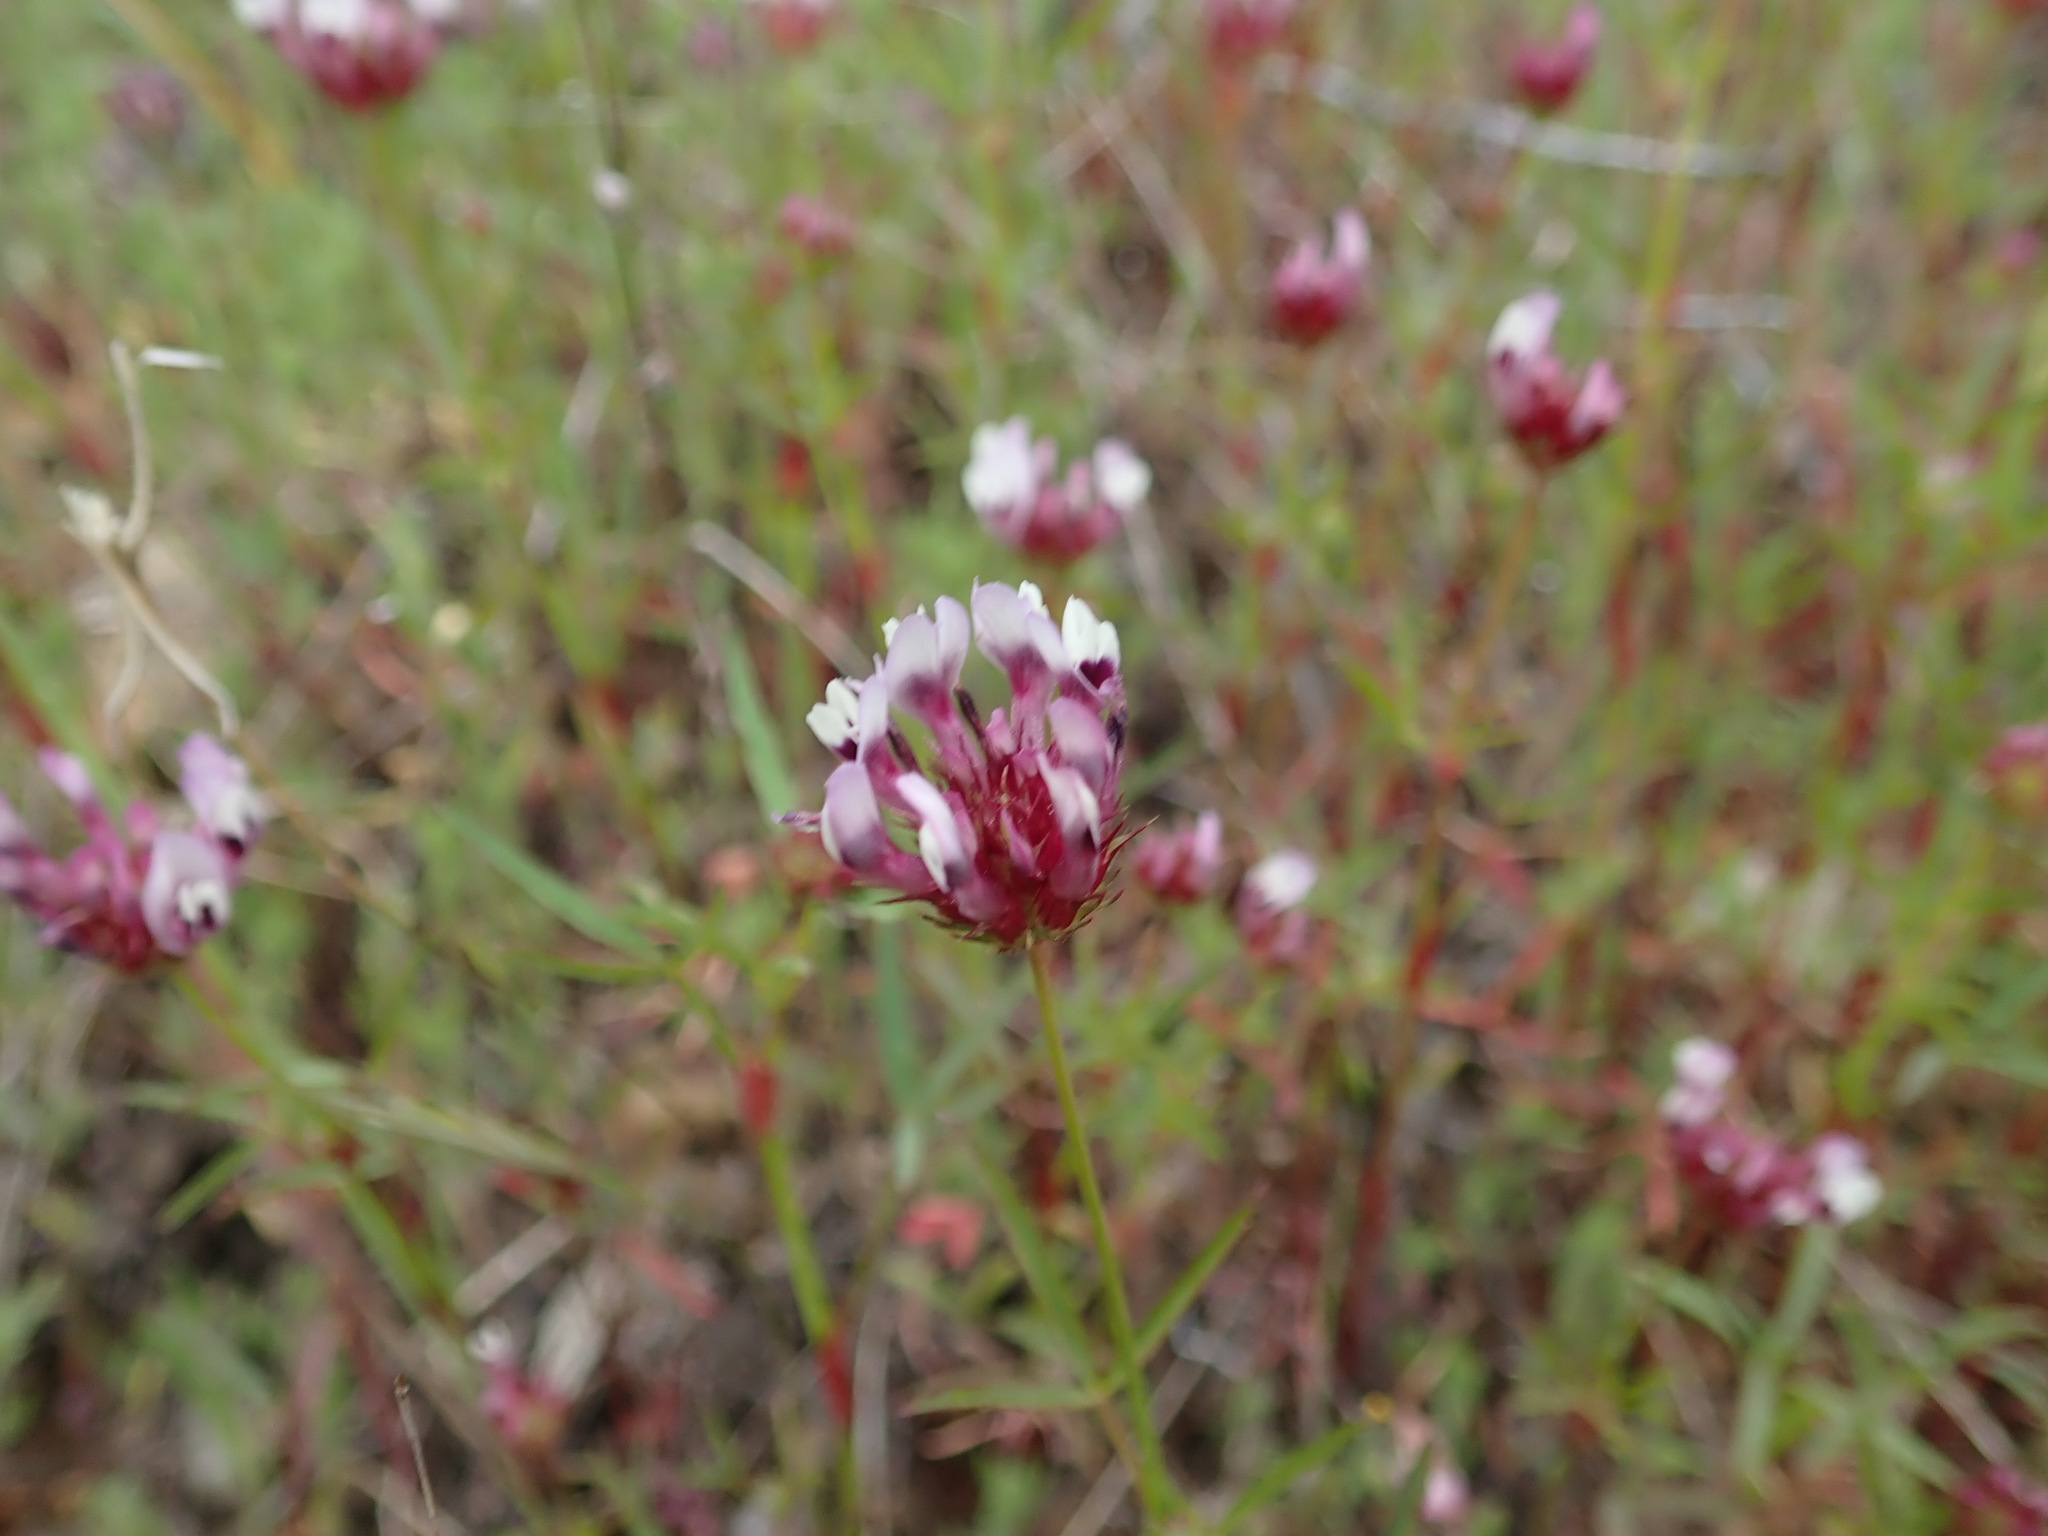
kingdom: Plantae
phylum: Tracheophyta
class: Magnoliopsida
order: Fabales
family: Fabaceae
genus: Trifolium
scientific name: Trifolium willdenovii
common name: Tomcat clover
